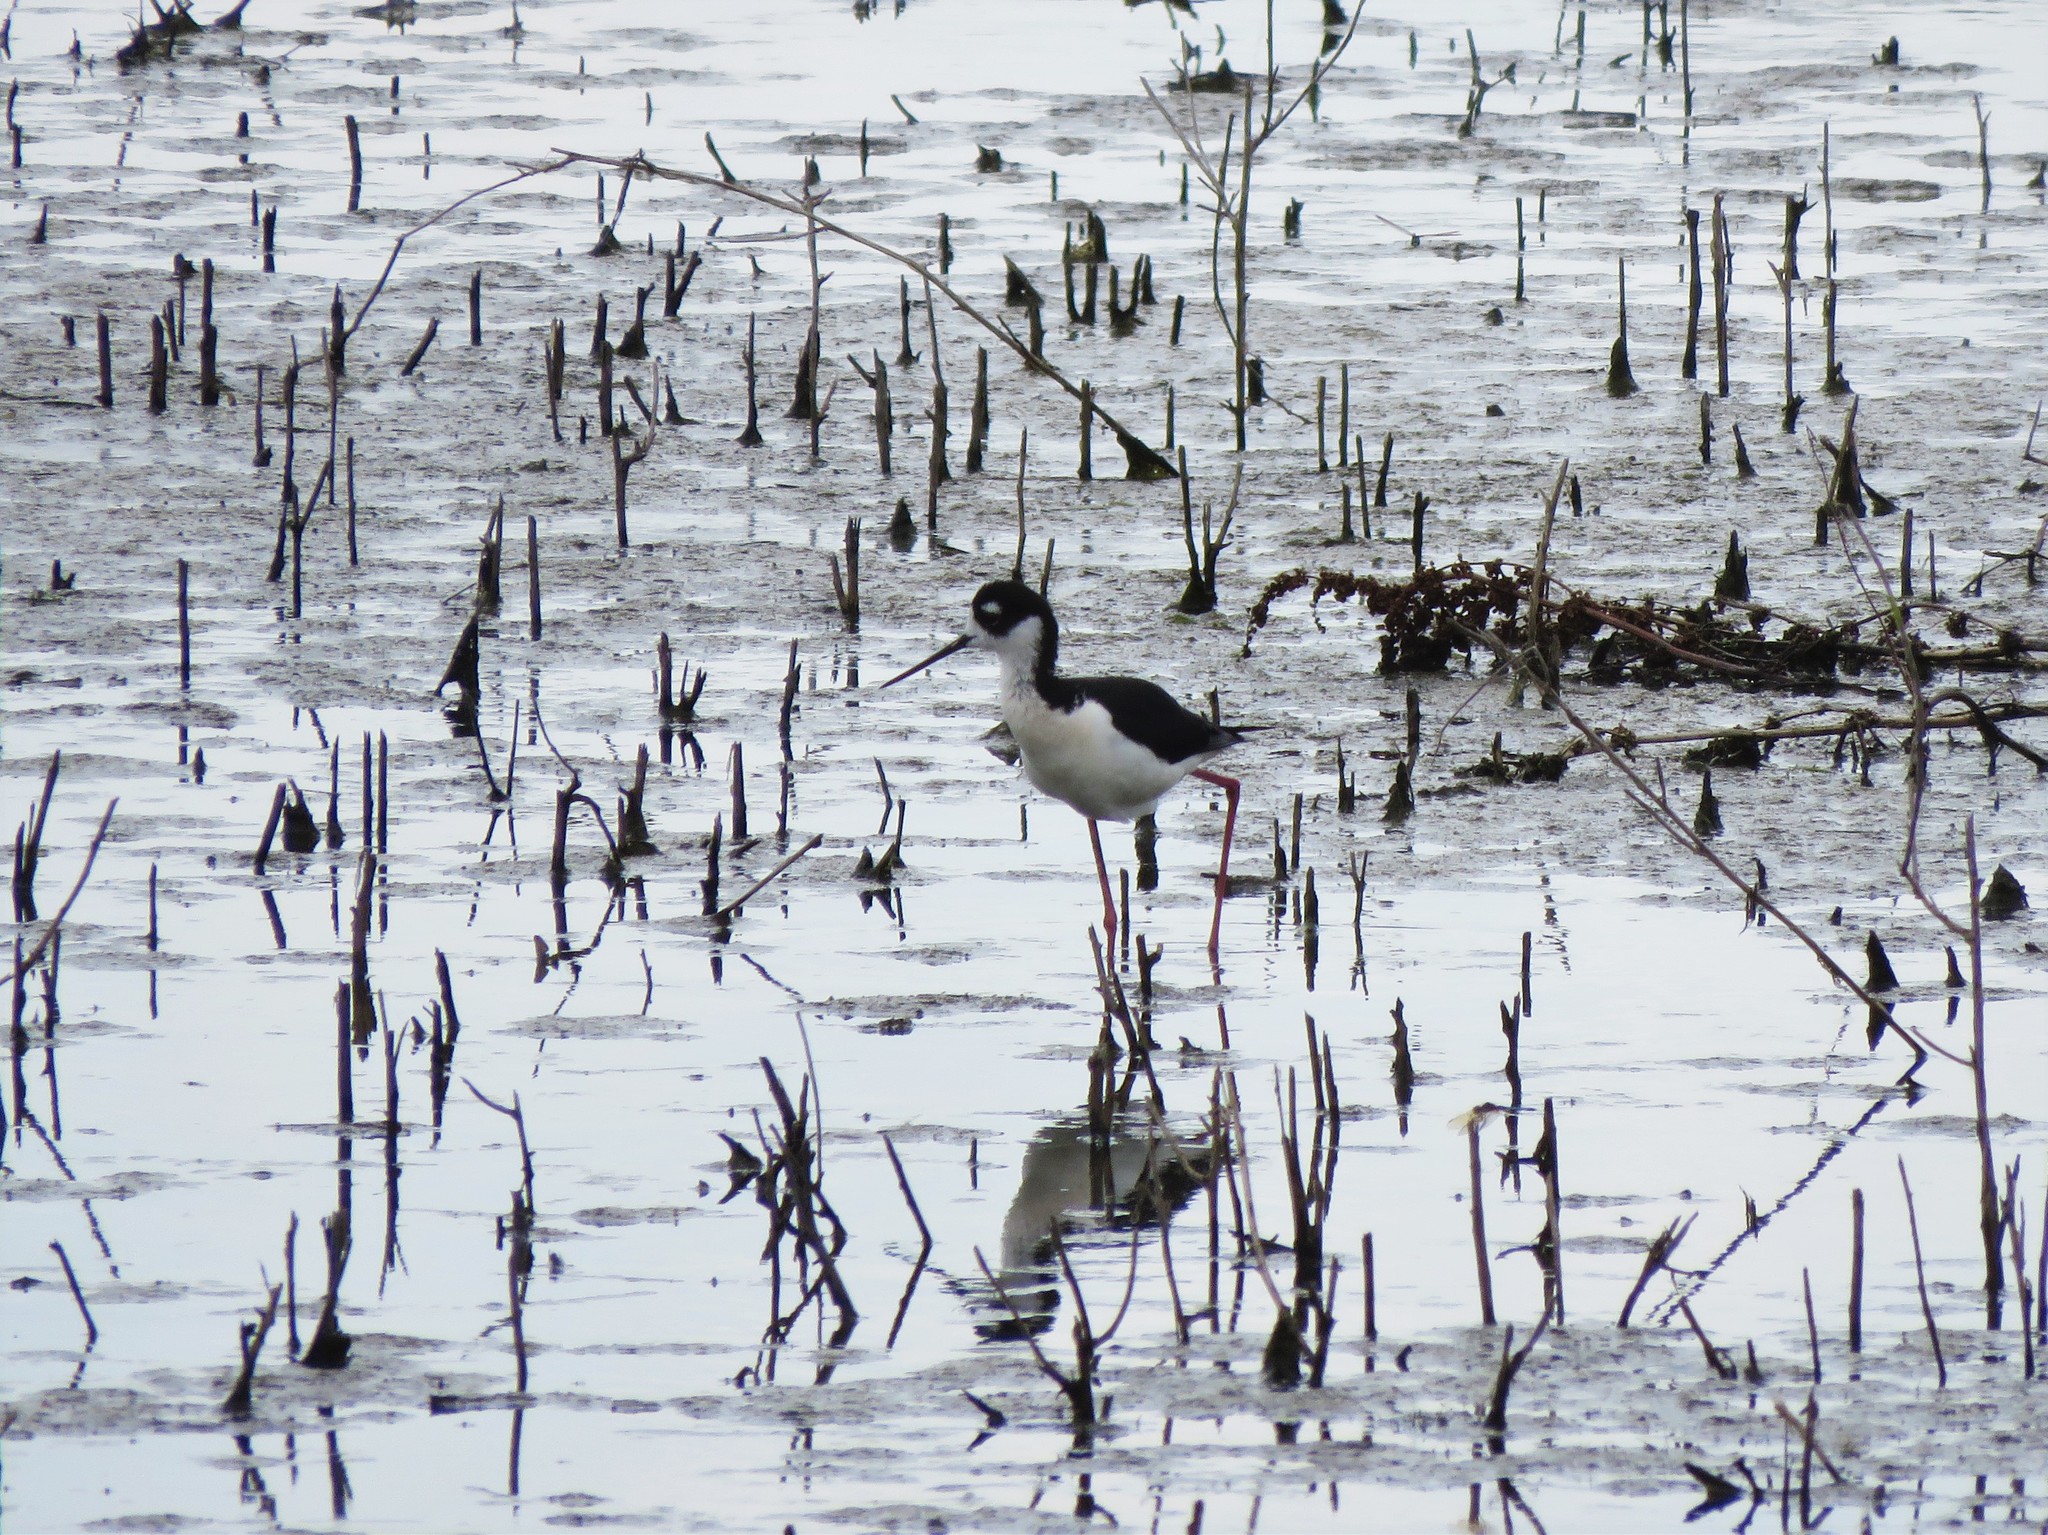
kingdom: Animalia
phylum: Chordata
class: Aves
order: Charadriiformes
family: Recurvirostridae
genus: Himantopus
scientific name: Himantopus mexicanus
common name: Black-necked stilt
